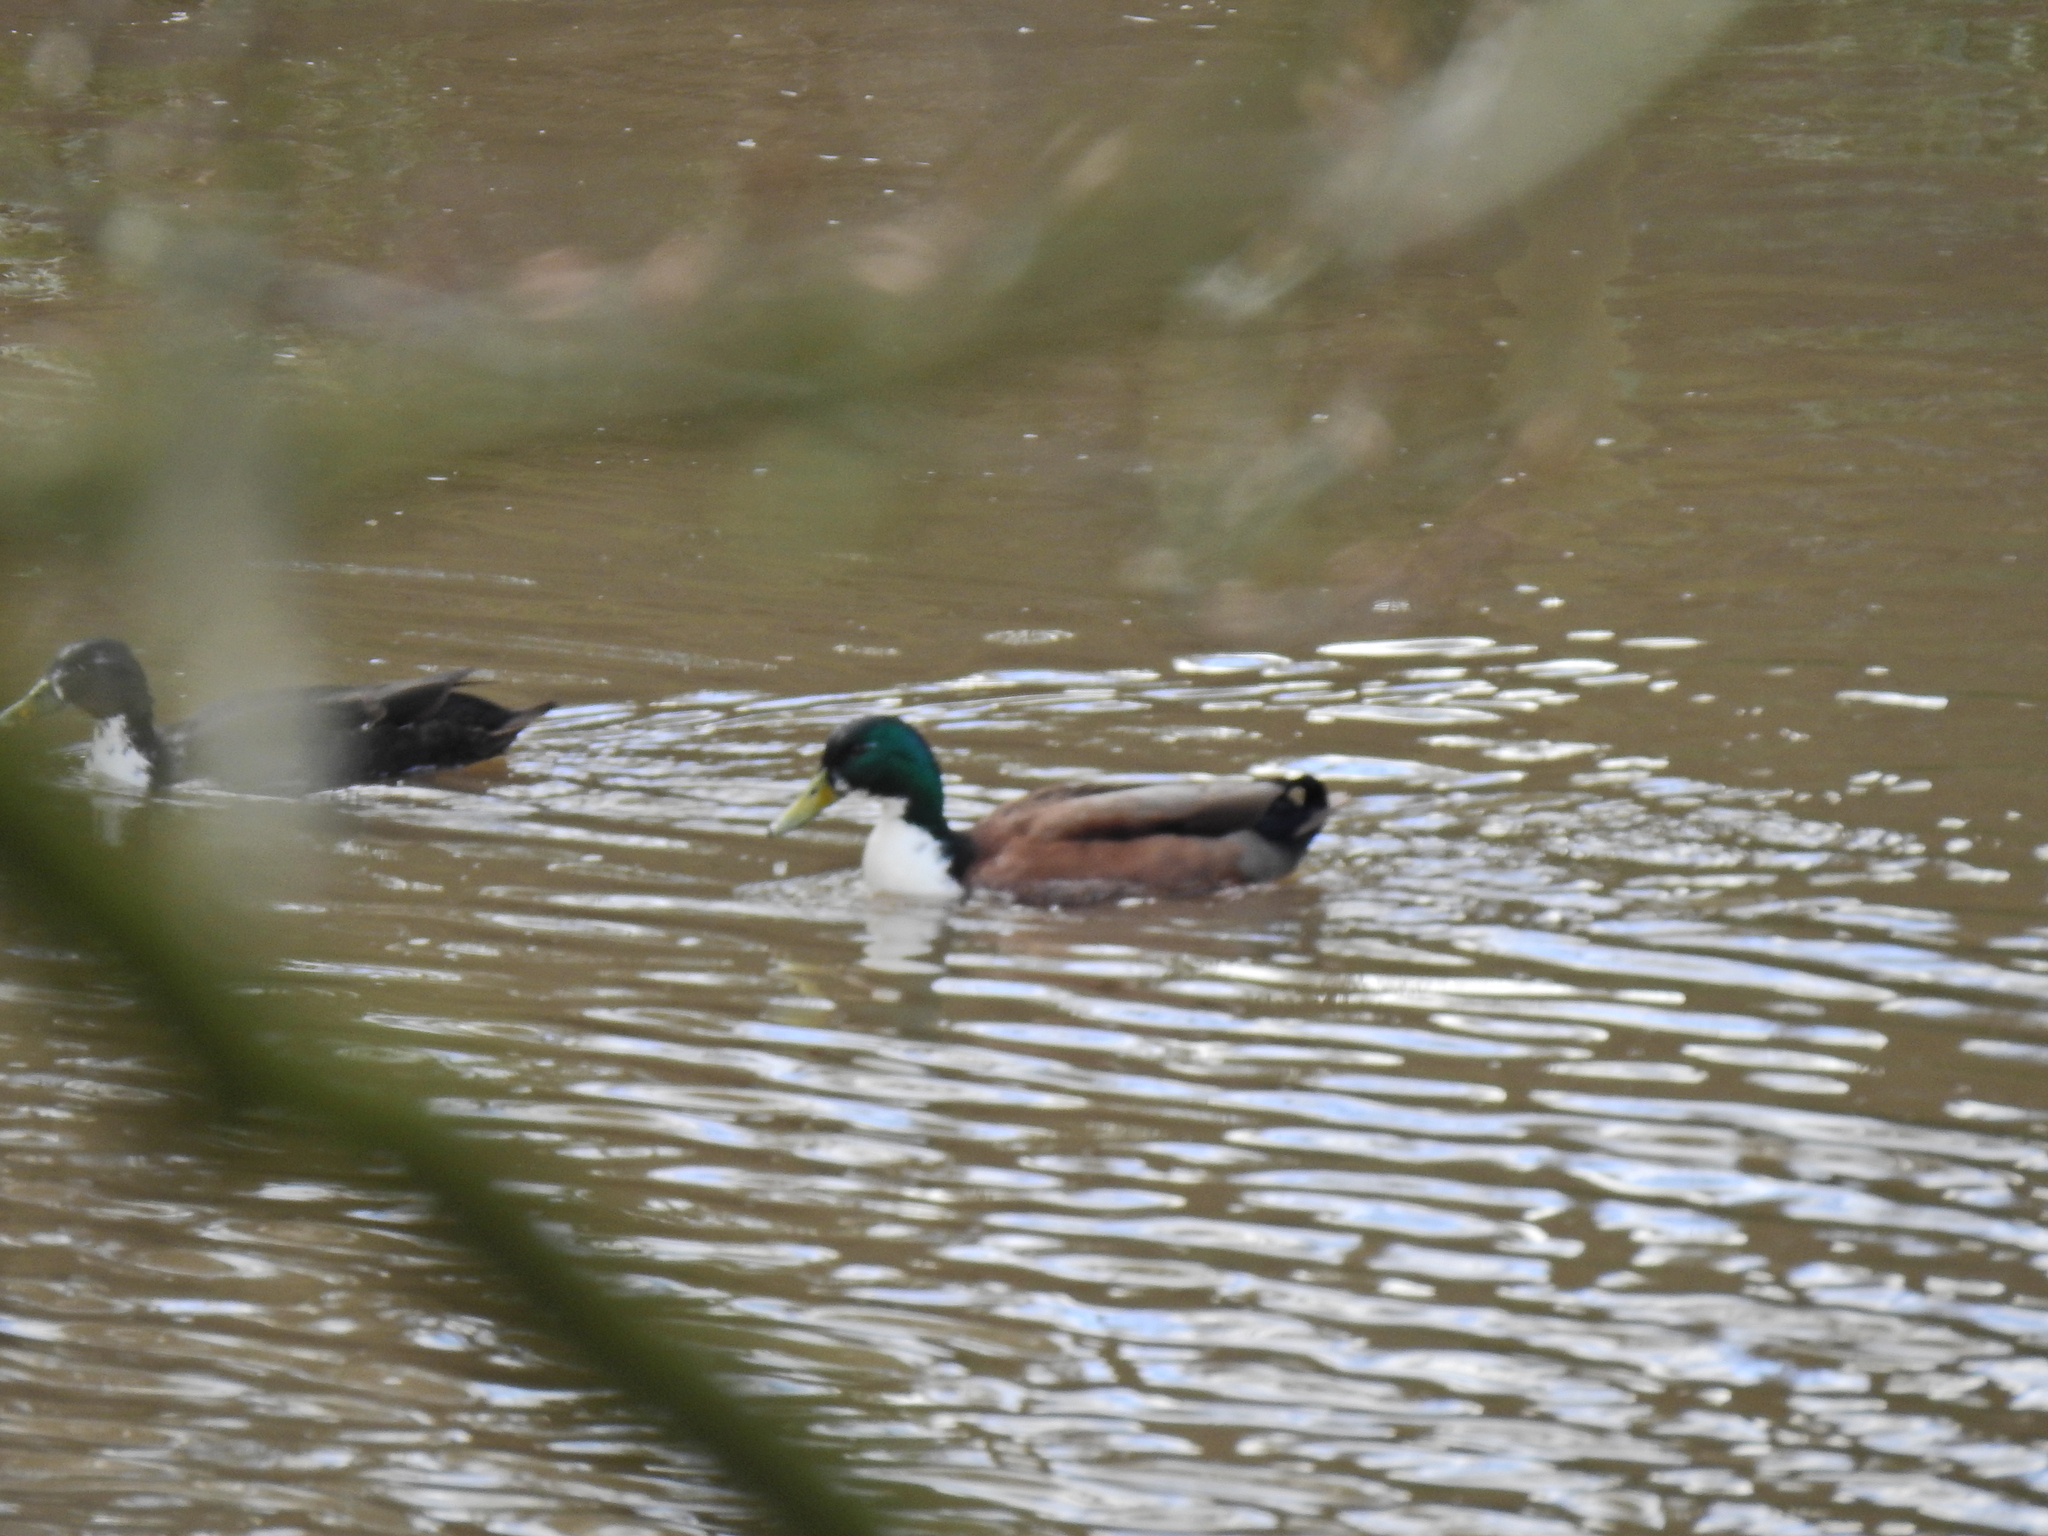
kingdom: Animalia
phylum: Chordata
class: Aves
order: Anseriformes
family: Anatidae
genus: Anas
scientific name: Anas platyrhynchos
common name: Mallard
